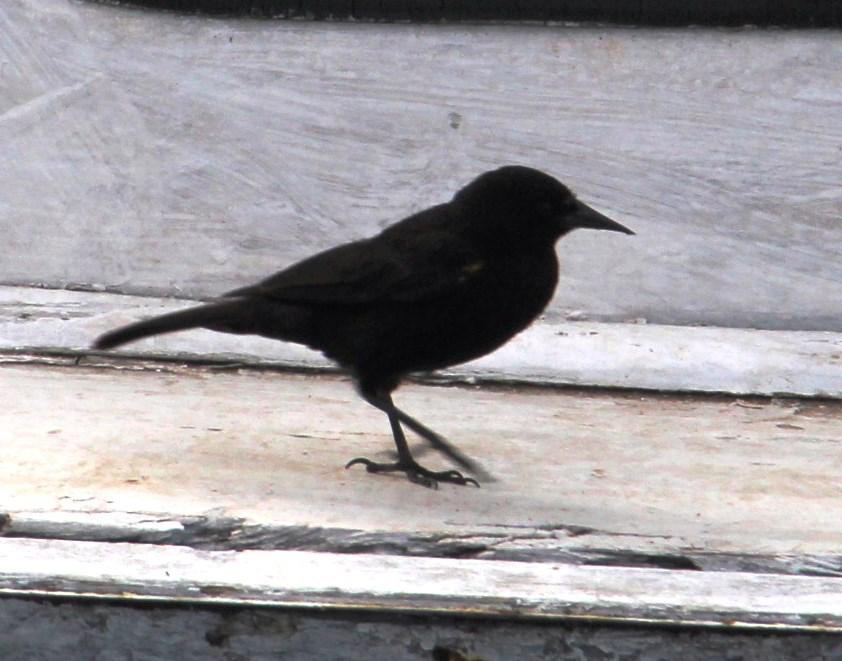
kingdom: Animalia
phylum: Chordata
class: Aves
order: Passeriformes
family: Icteridae
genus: Agelasticus
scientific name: Agelasticus thilius
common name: Yellow-winged blackbird
